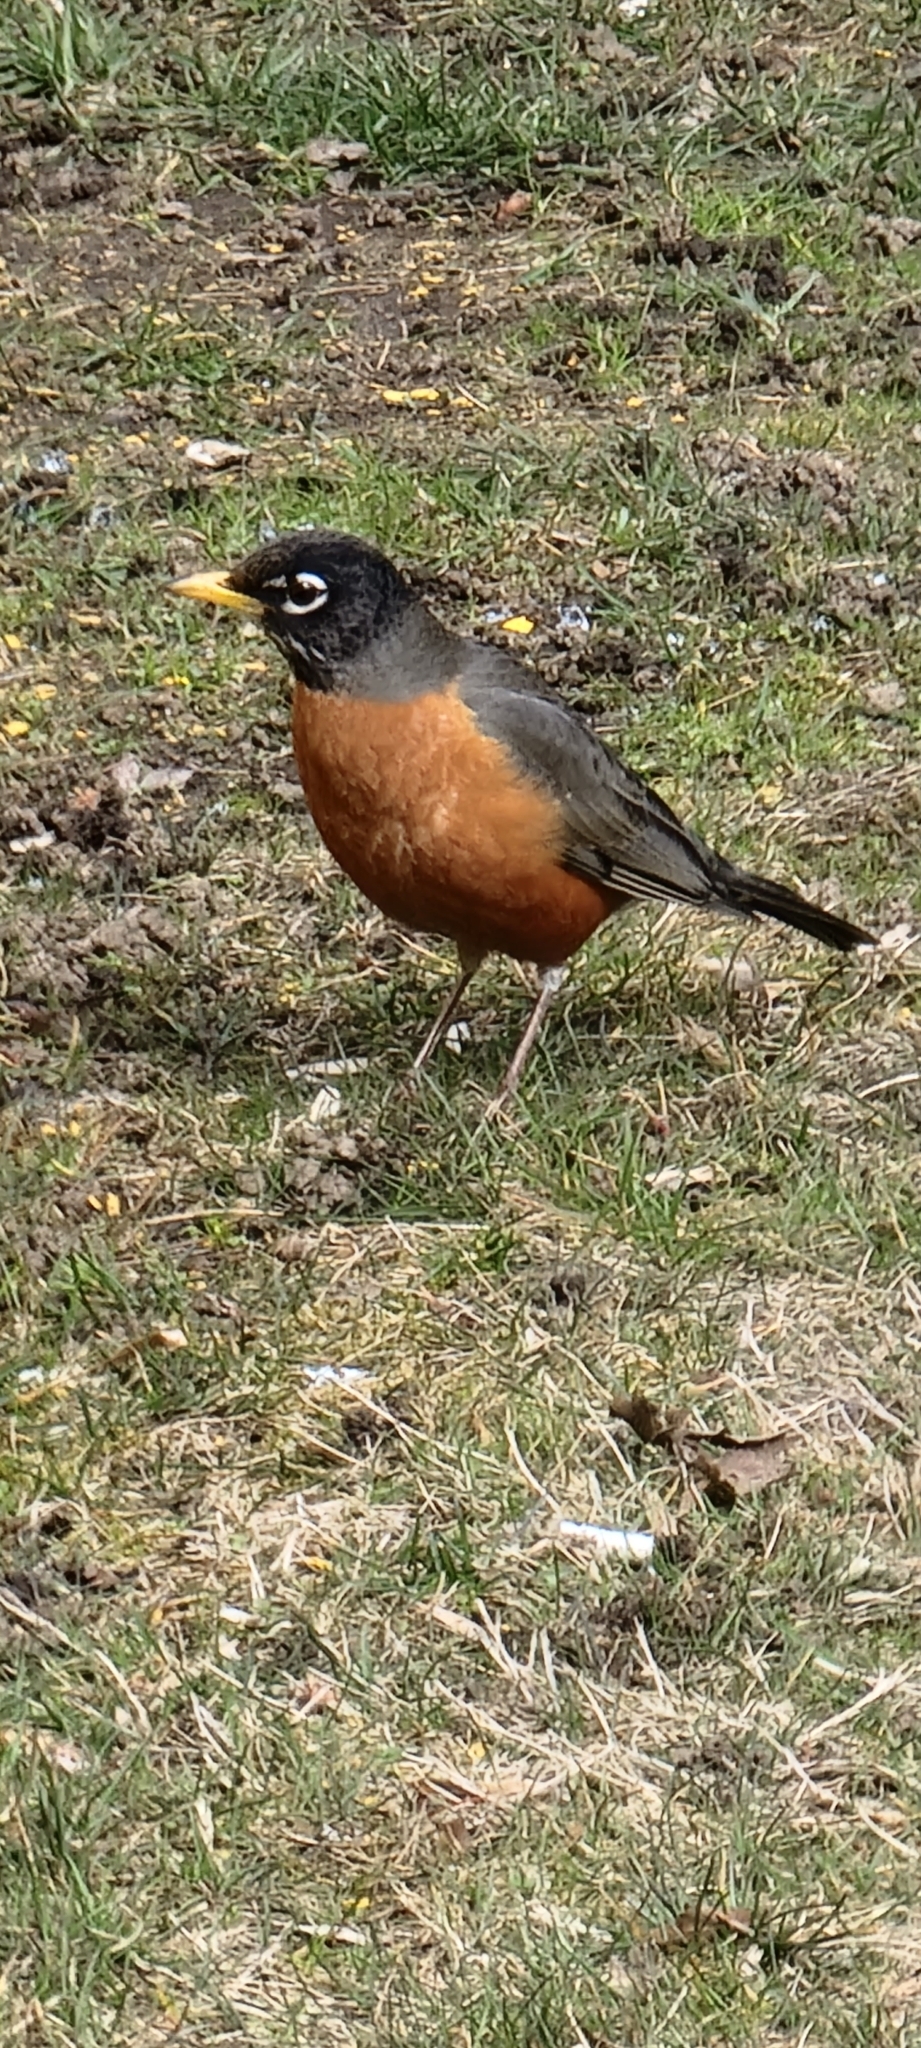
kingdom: Animalia
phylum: Chordata
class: Aves
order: Passeriformes
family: Turdidae
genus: Turdus
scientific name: Turdus migratorius
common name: American robin
